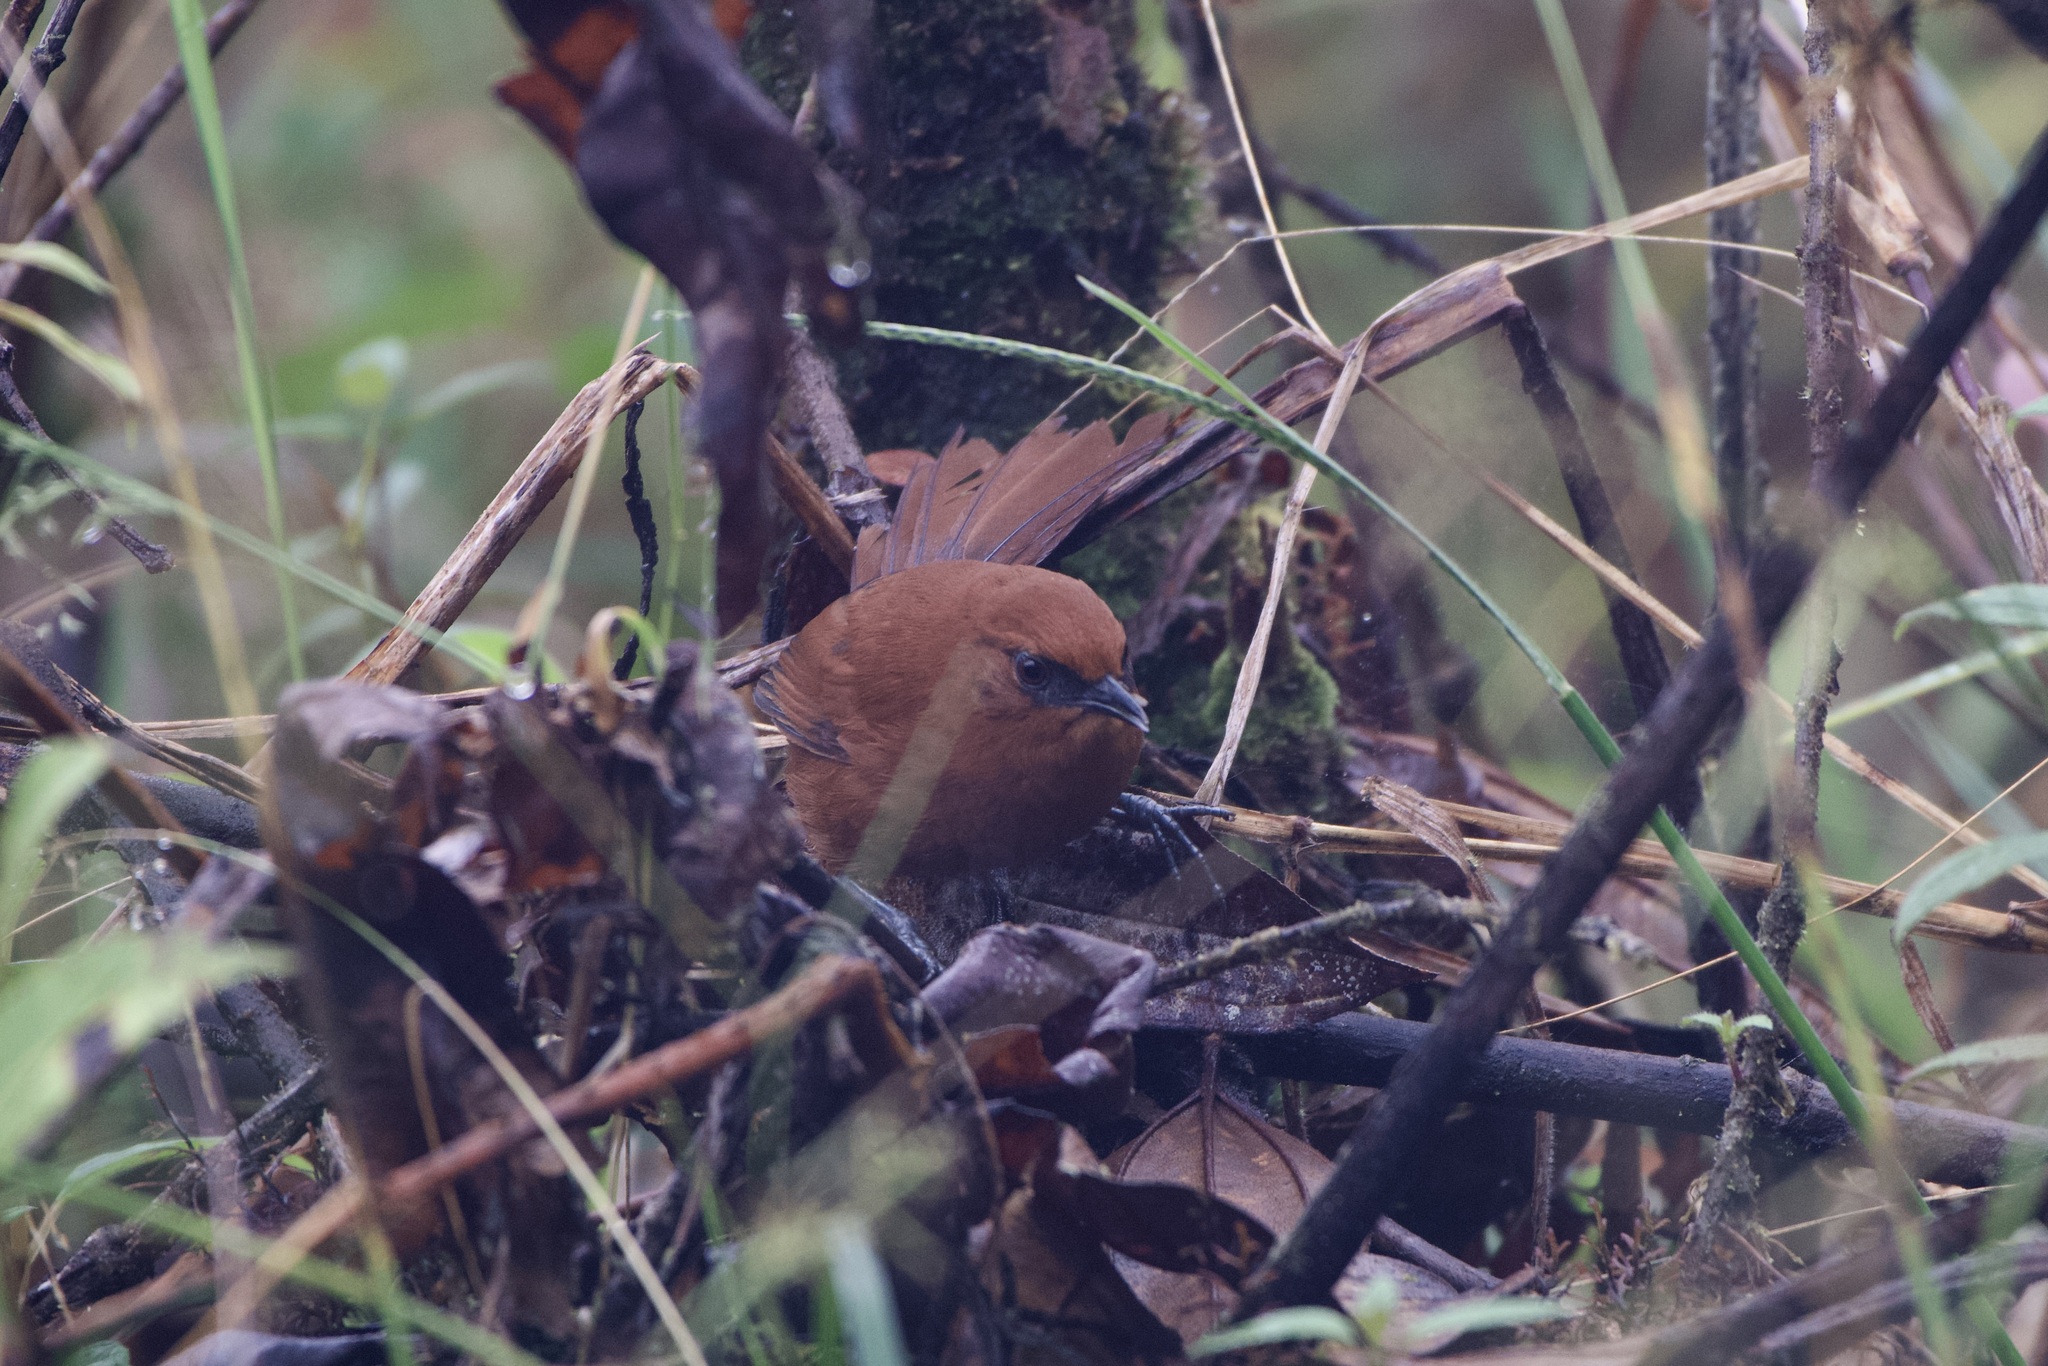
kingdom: Animalia
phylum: Chordata
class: Aves
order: Passeriformes
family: Furnariidae
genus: Synallaxis
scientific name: Synallaxis unirufa
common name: Rufous spinetail
